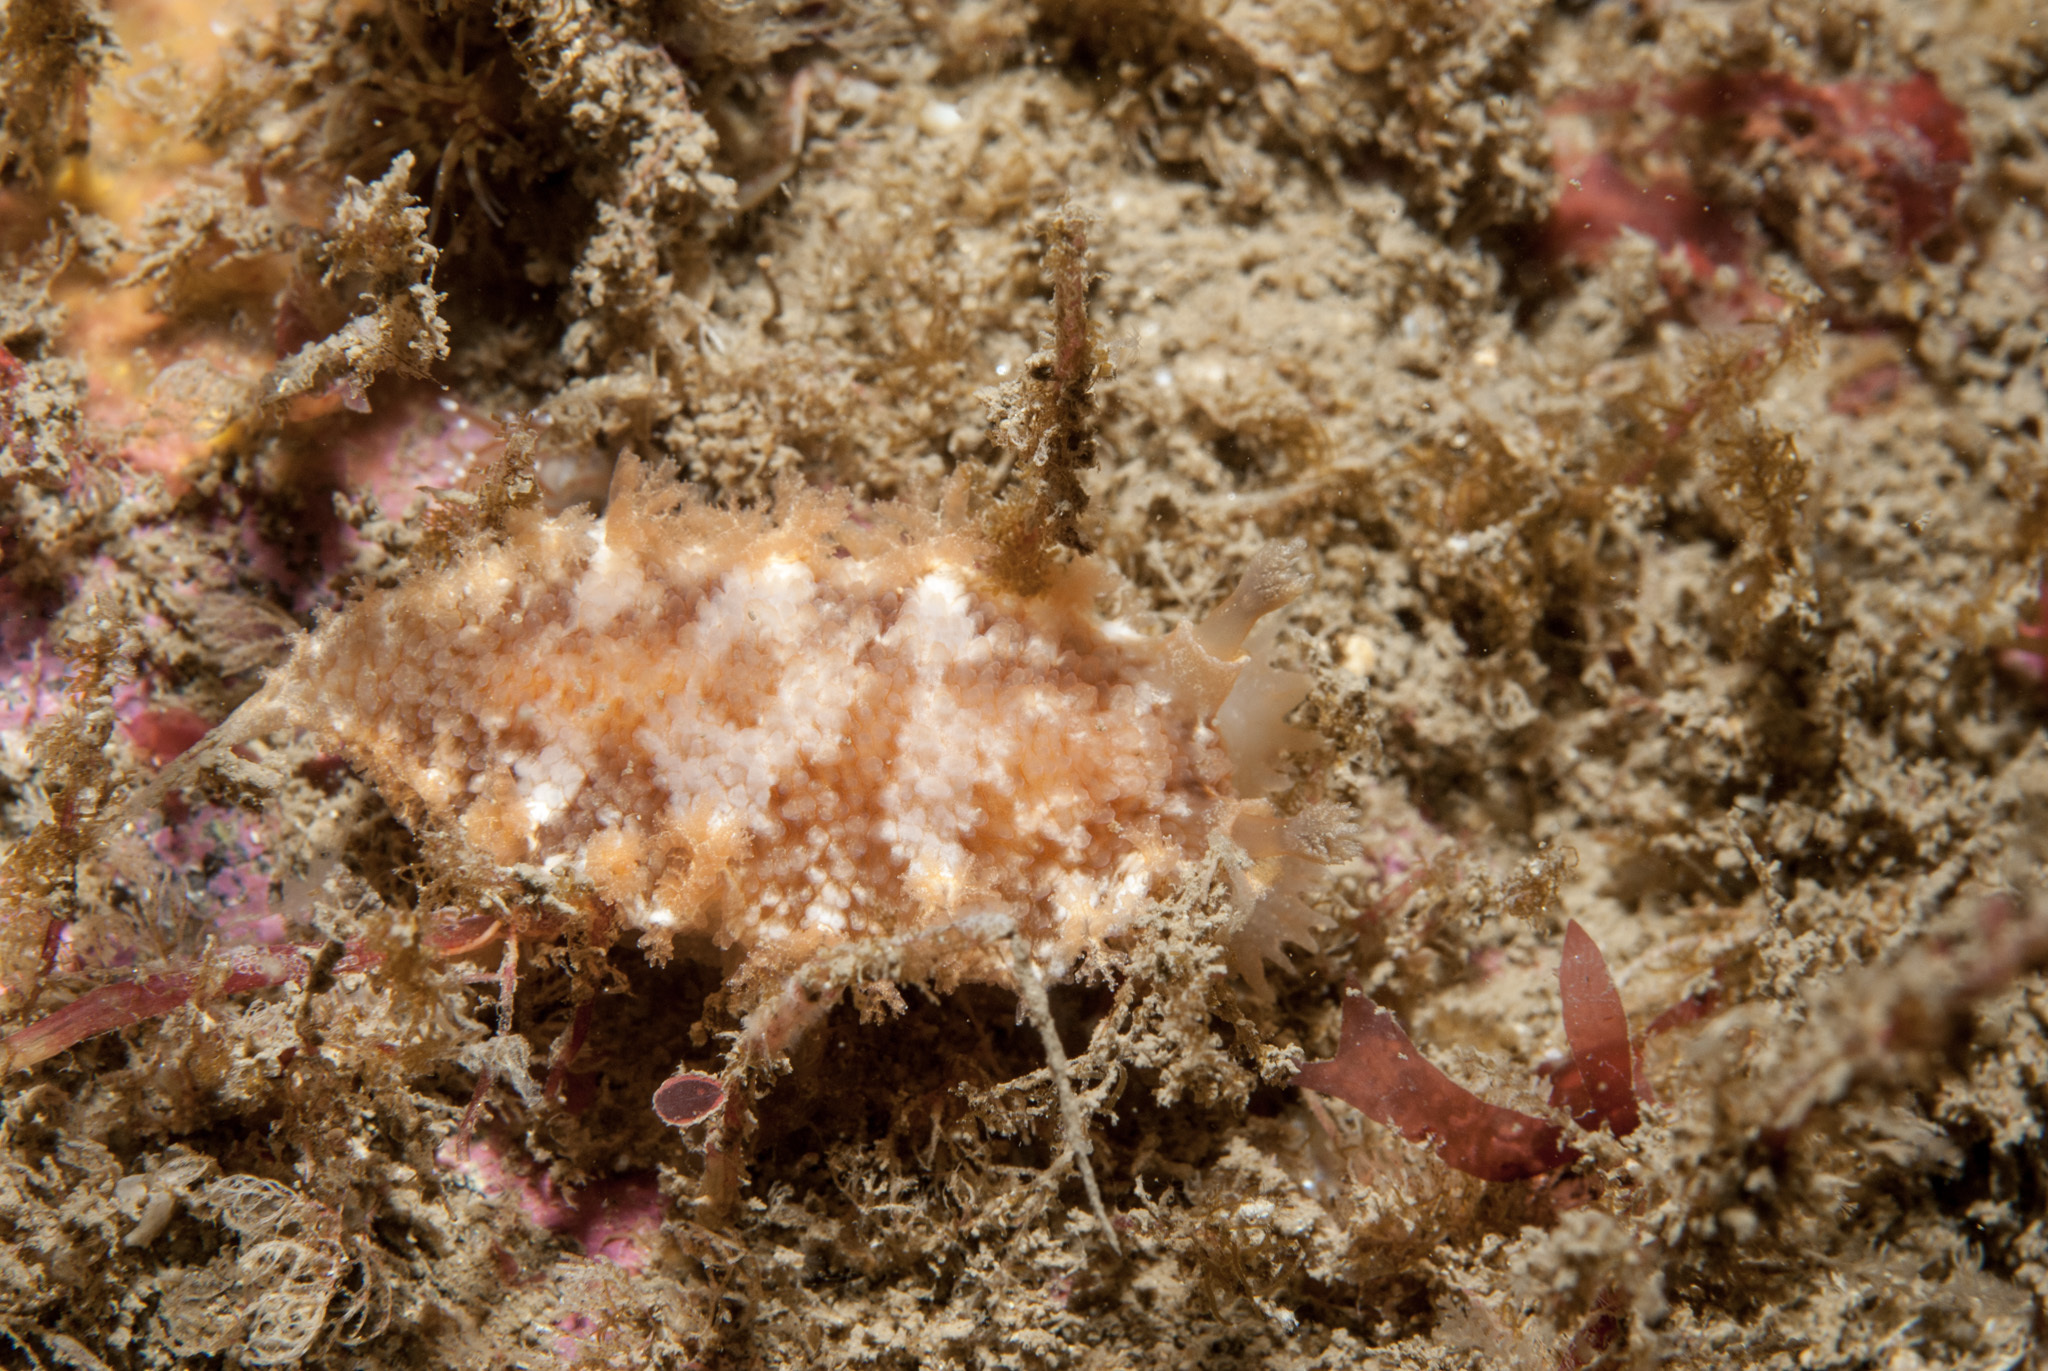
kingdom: Animalia
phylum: Mollusca
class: Gastropoda
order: Nudibranchia
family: Tritoniidae
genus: Tritonia
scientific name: Tritonia hombergii
